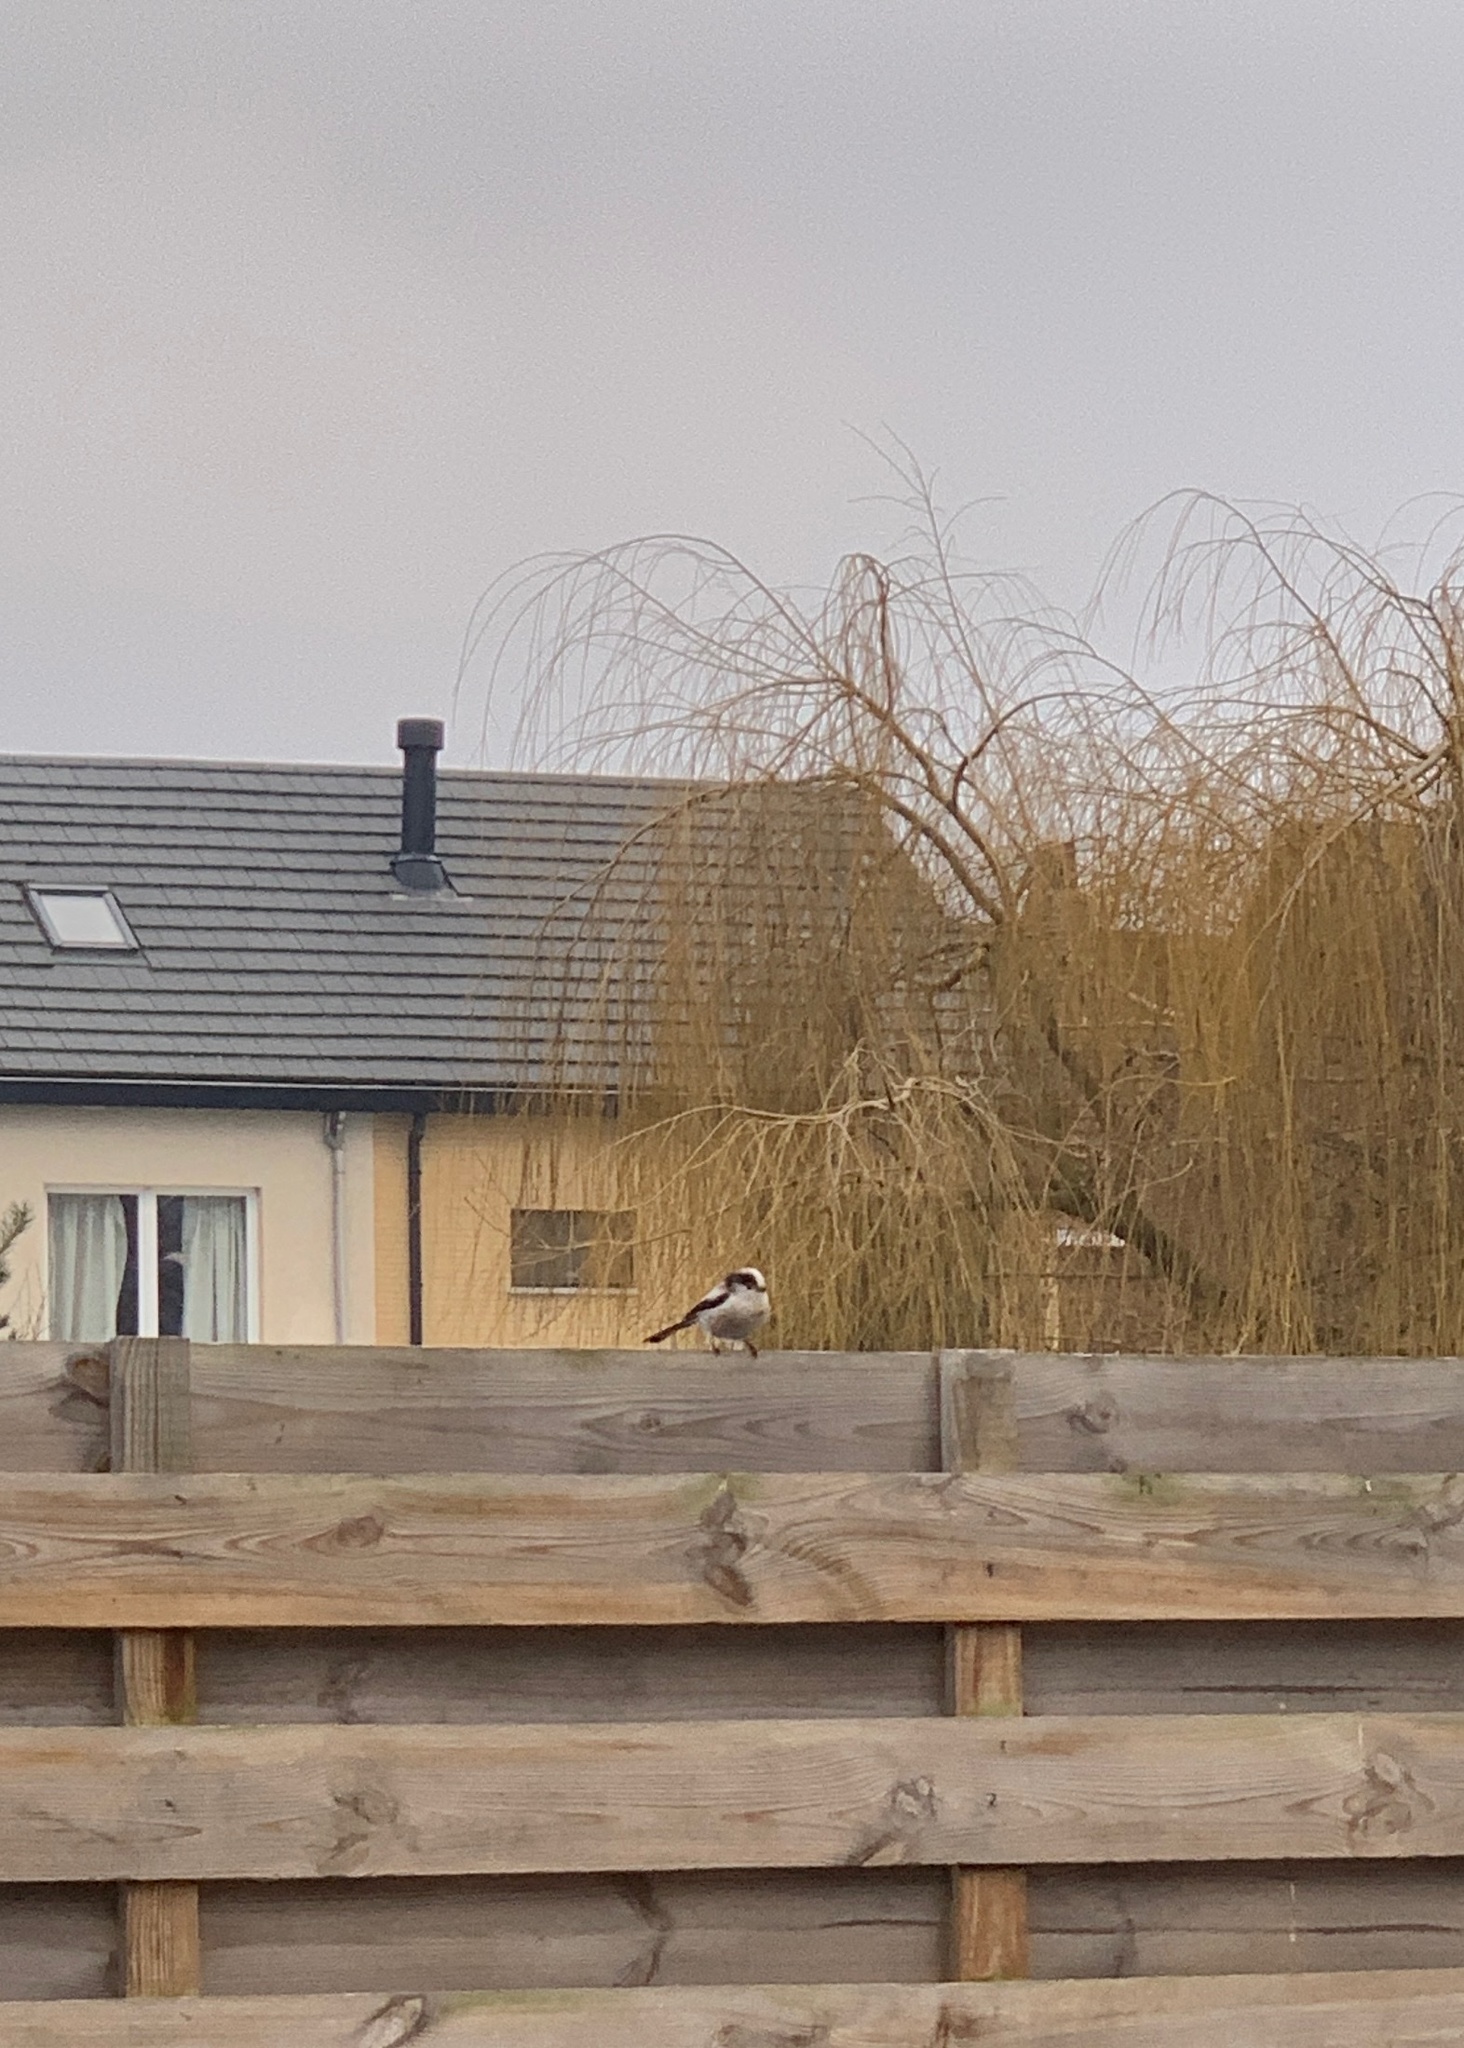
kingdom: Animalia
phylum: Chordata
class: Aves
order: Passeriformes
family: Aegithalidae
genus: Aegithalos
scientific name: Aegithalos caudatus
